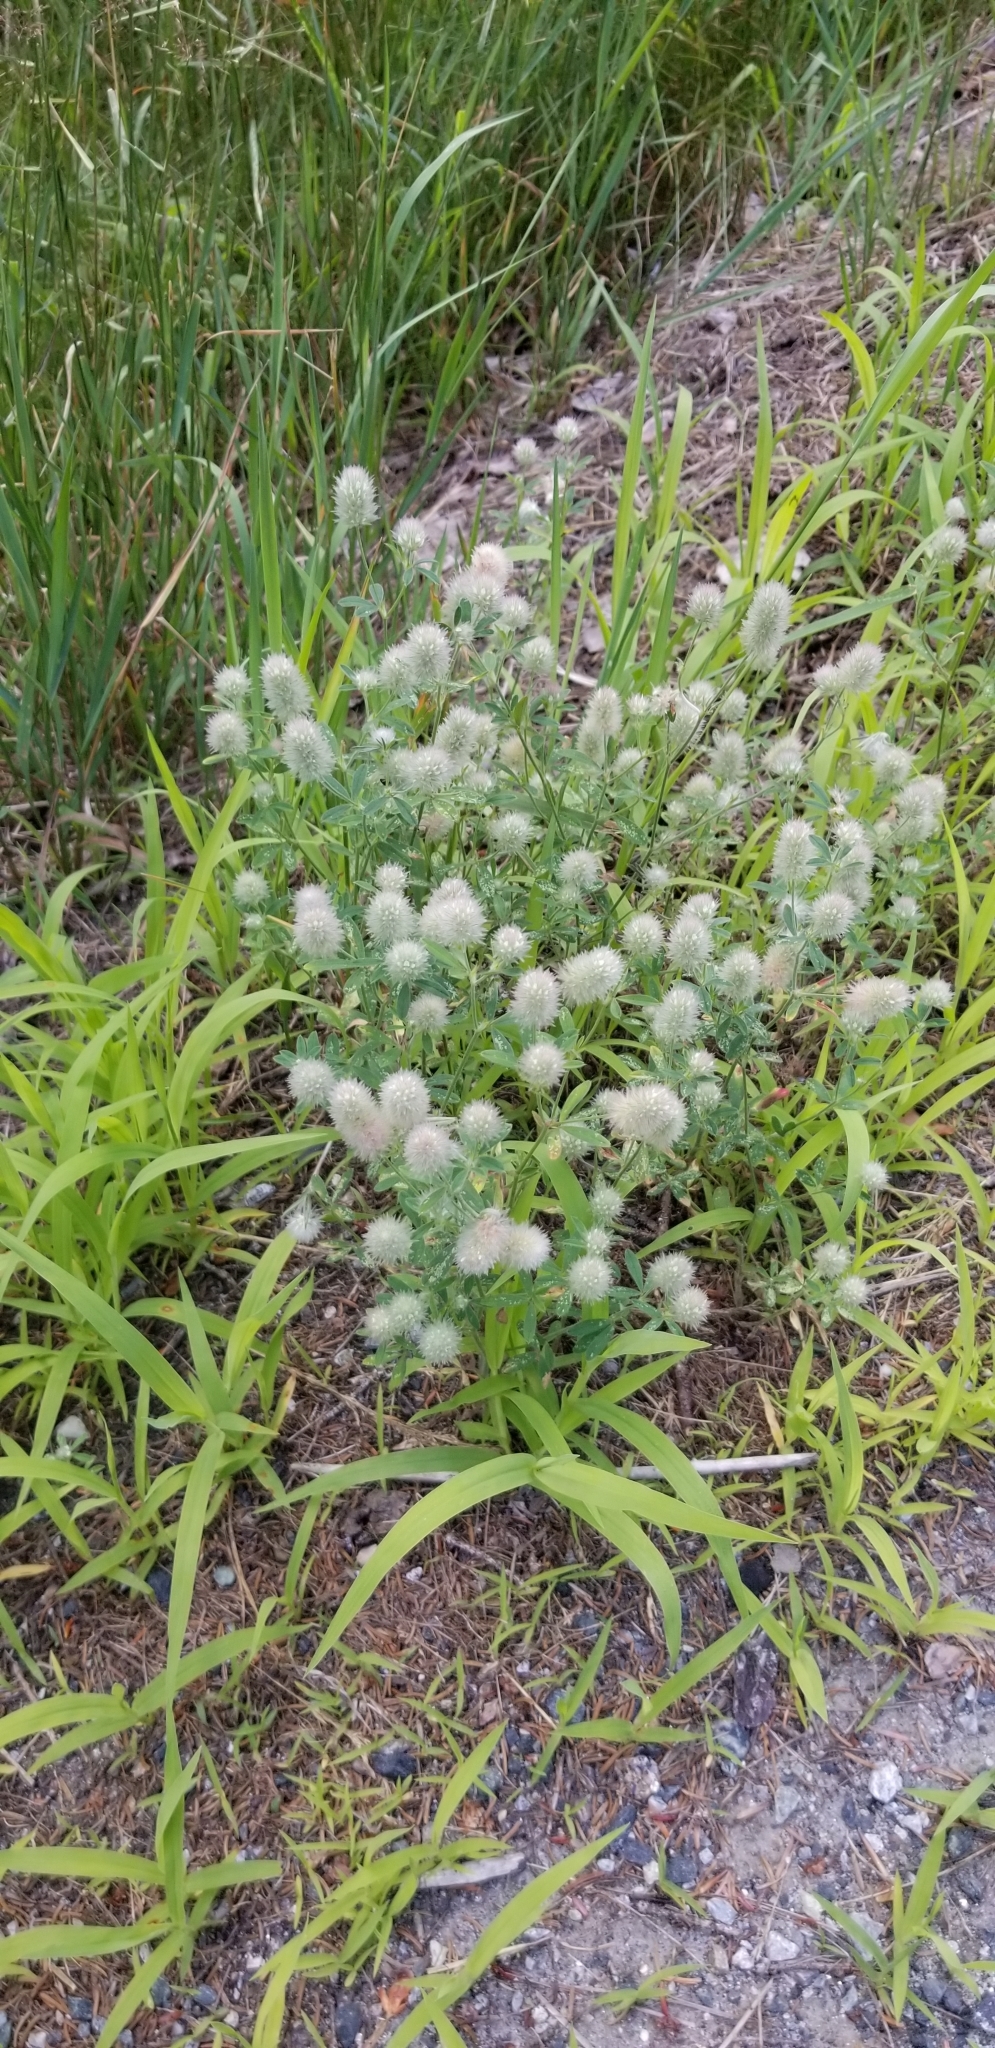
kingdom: Plantae
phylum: Tracheophyta
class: Magnoliopsida
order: Fabales
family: Fabaceae
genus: Trifolium
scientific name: Trifolium arvense
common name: Hare's-foot clover
